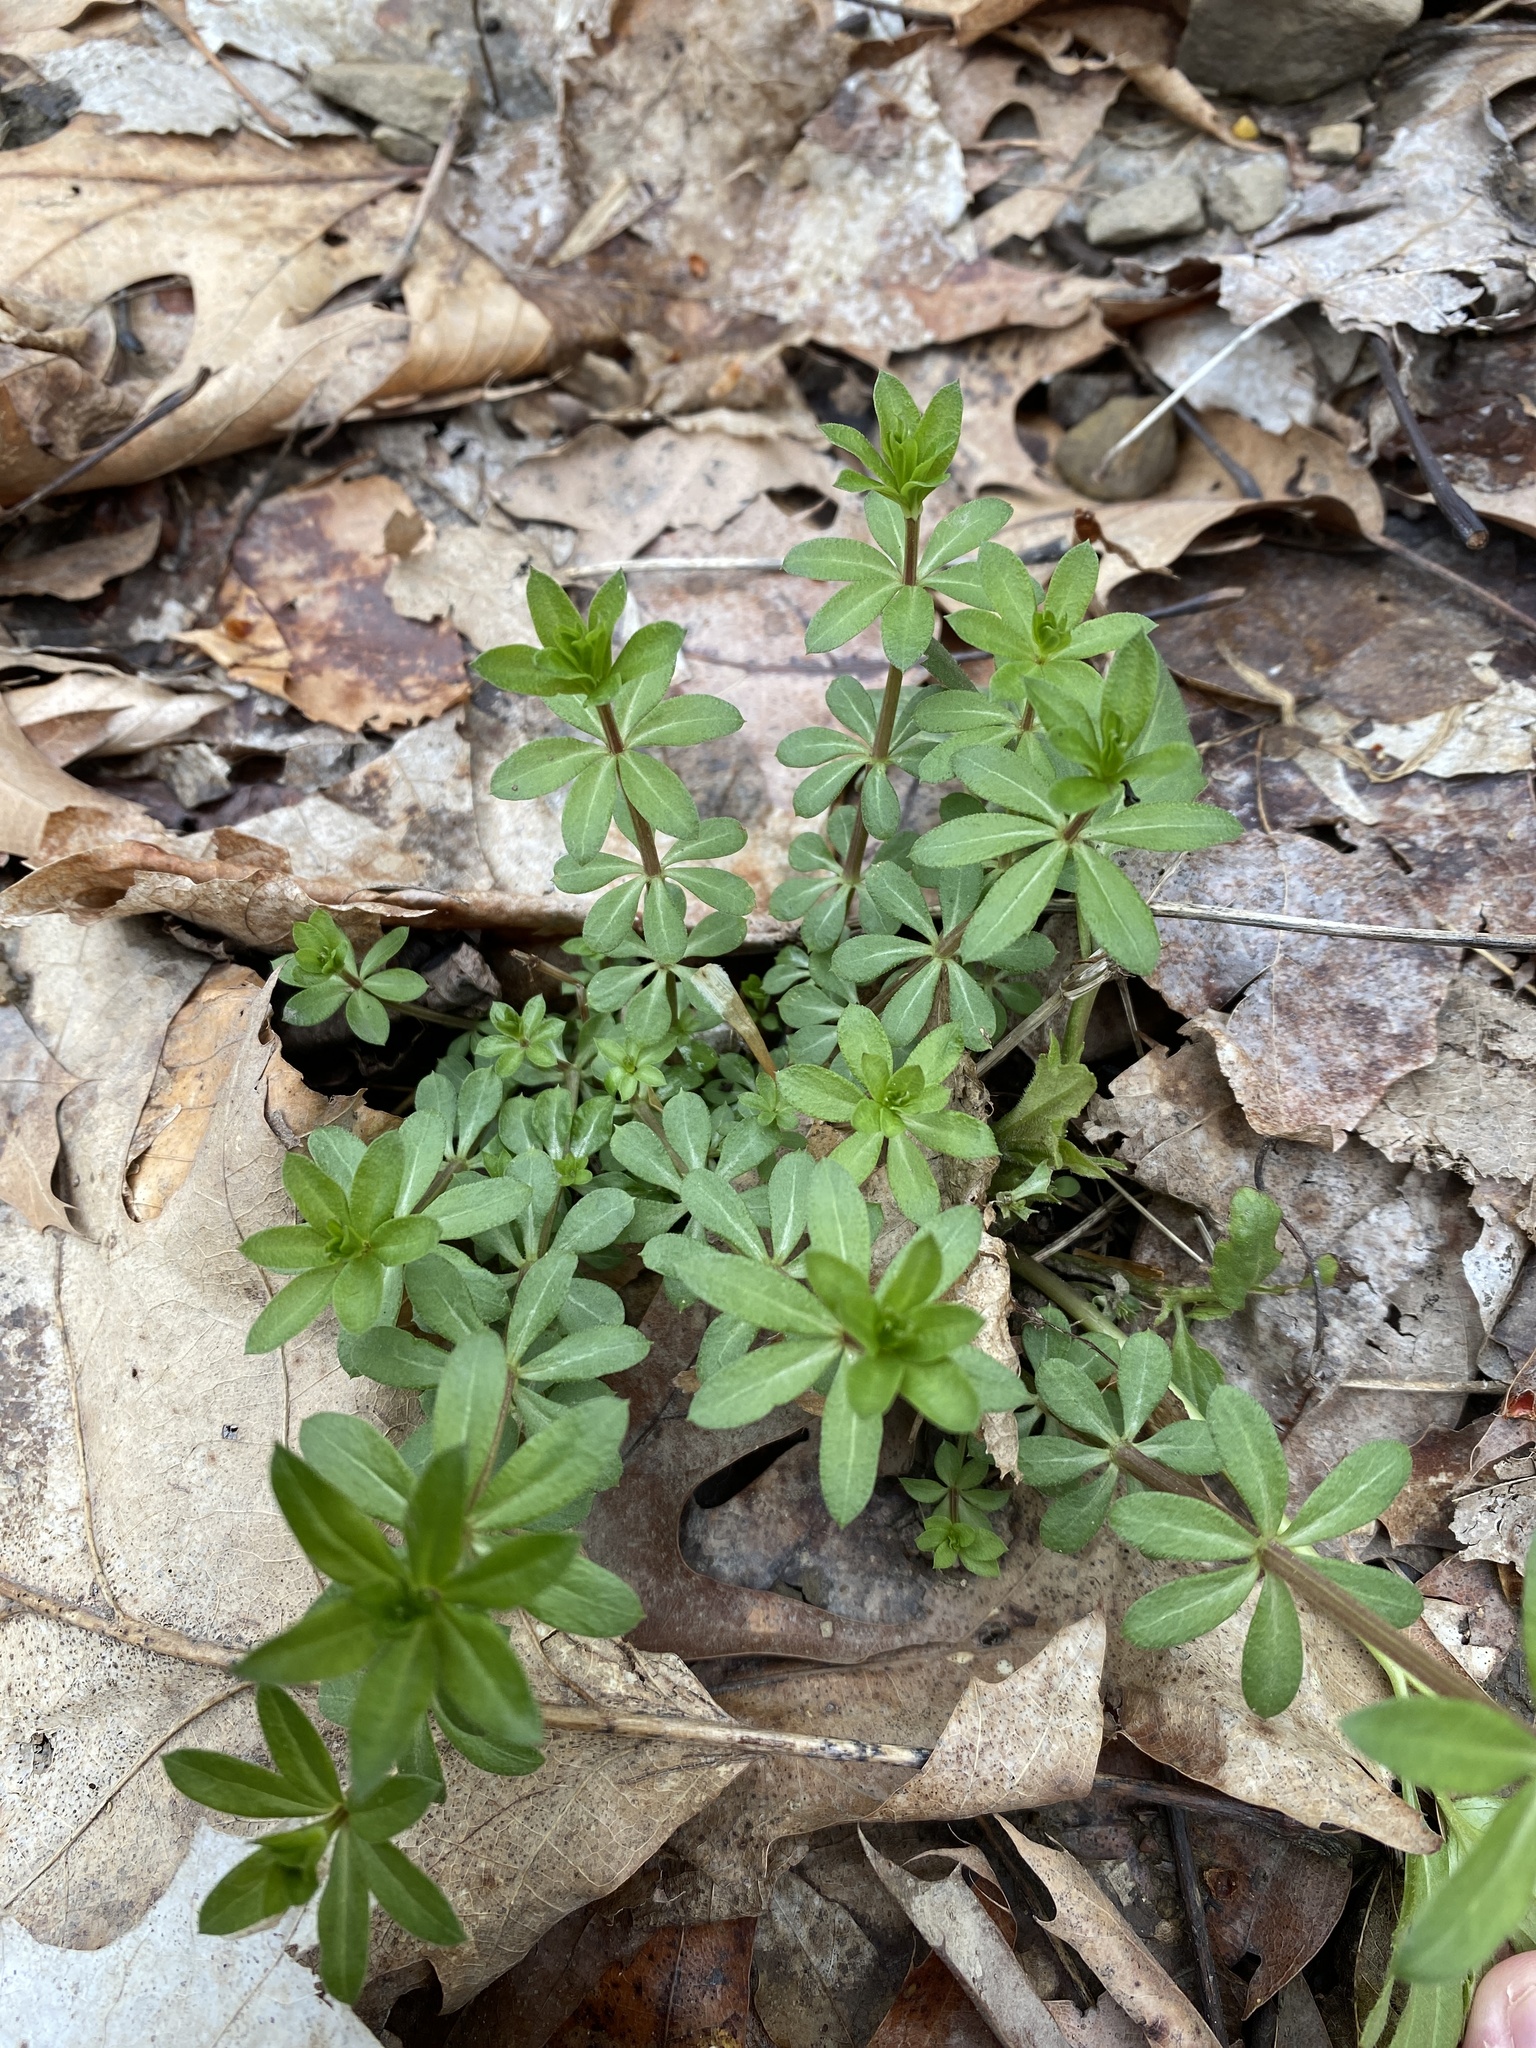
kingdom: Plantae
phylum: Tracheophyta
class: Magnoliopsida
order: Gentianales
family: Rubiaceae
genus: Galium
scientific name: Galium triflorum
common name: Fragrant bedstraw
